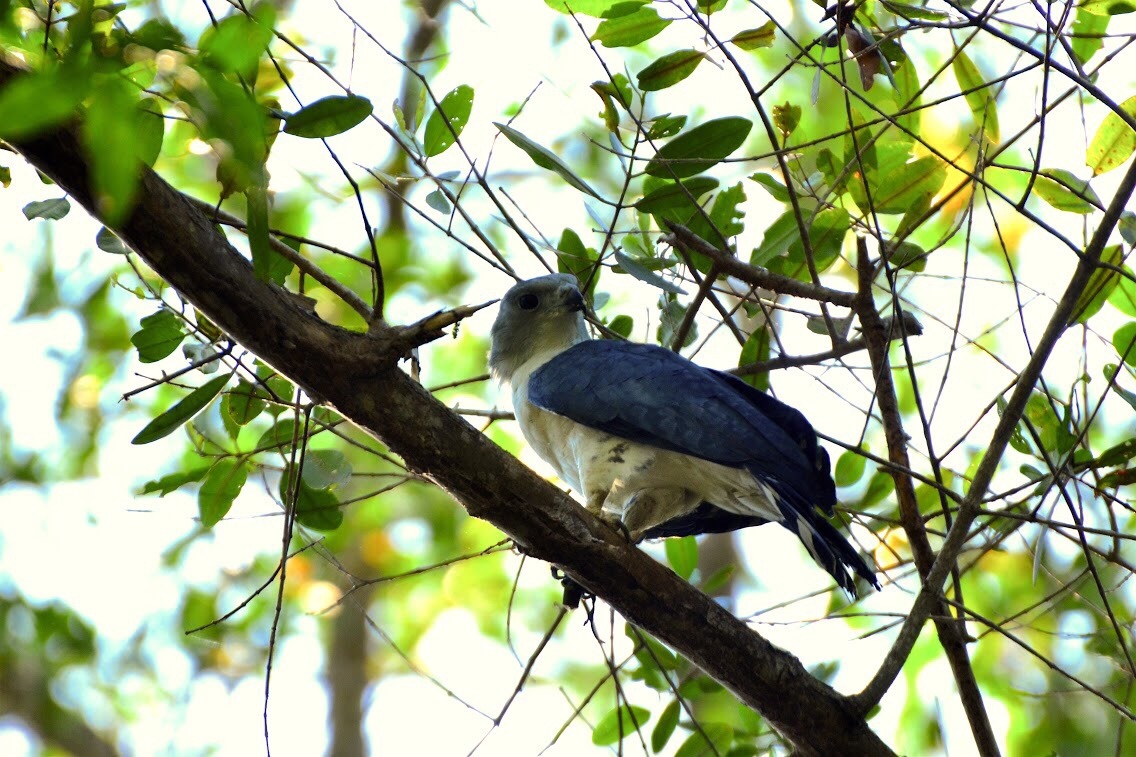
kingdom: Animalia
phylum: Chordata
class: Aves
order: Accipitriformes
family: Accipitridae
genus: Leptodon
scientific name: Leptodon cayanensis
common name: Gray-headed kite
